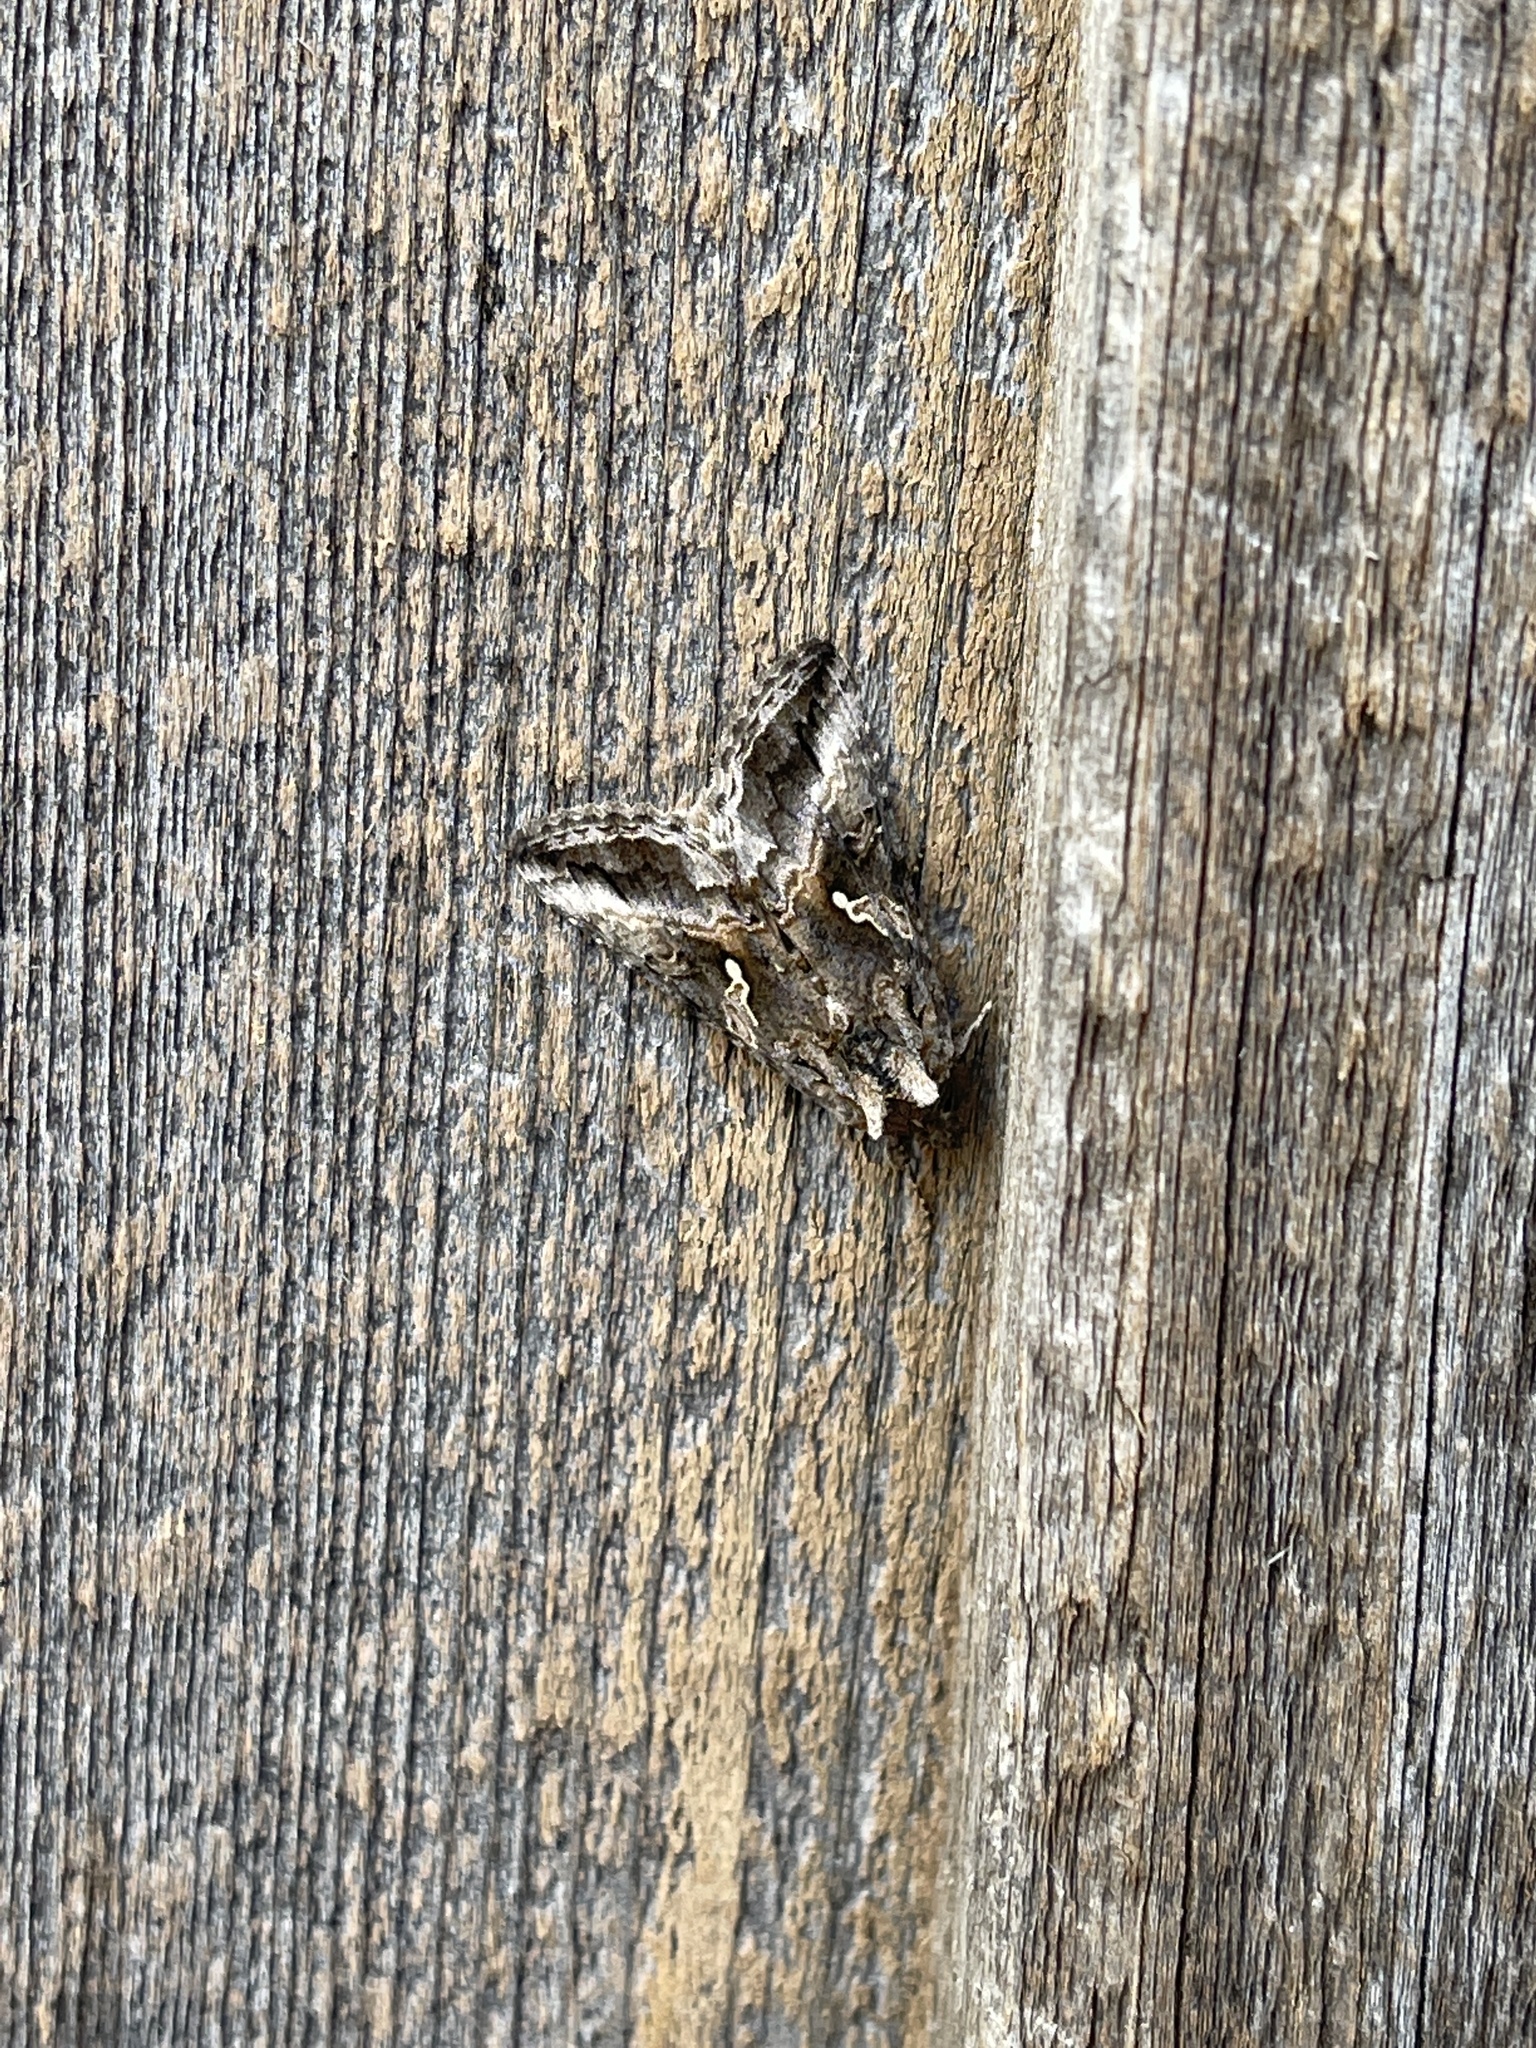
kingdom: Animalia
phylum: Arthropoda
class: Insecta
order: Lepidoptera
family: Noctuidae
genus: Autographa
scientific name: Autographa californica
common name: Alfalfa looper
